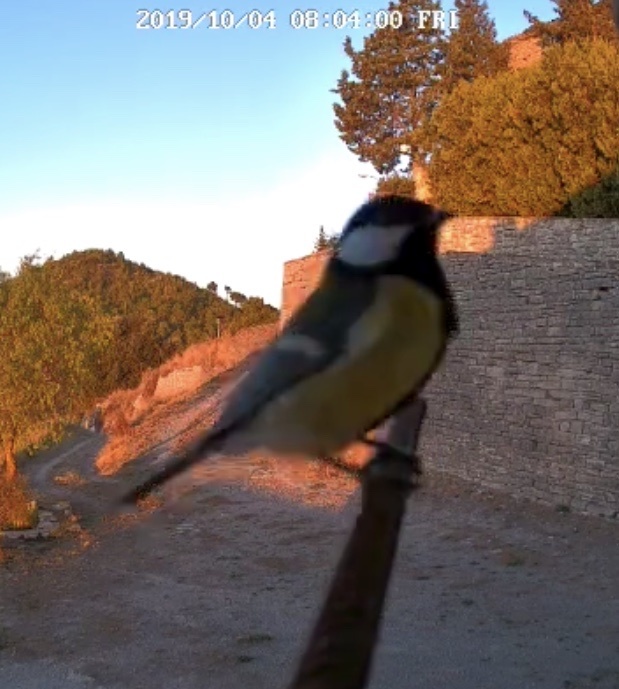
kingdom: Animalia
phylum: Chordata
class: Aves
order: Passeriformes
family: Paridae
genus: Parus
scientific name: Parus major
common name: Great tit
